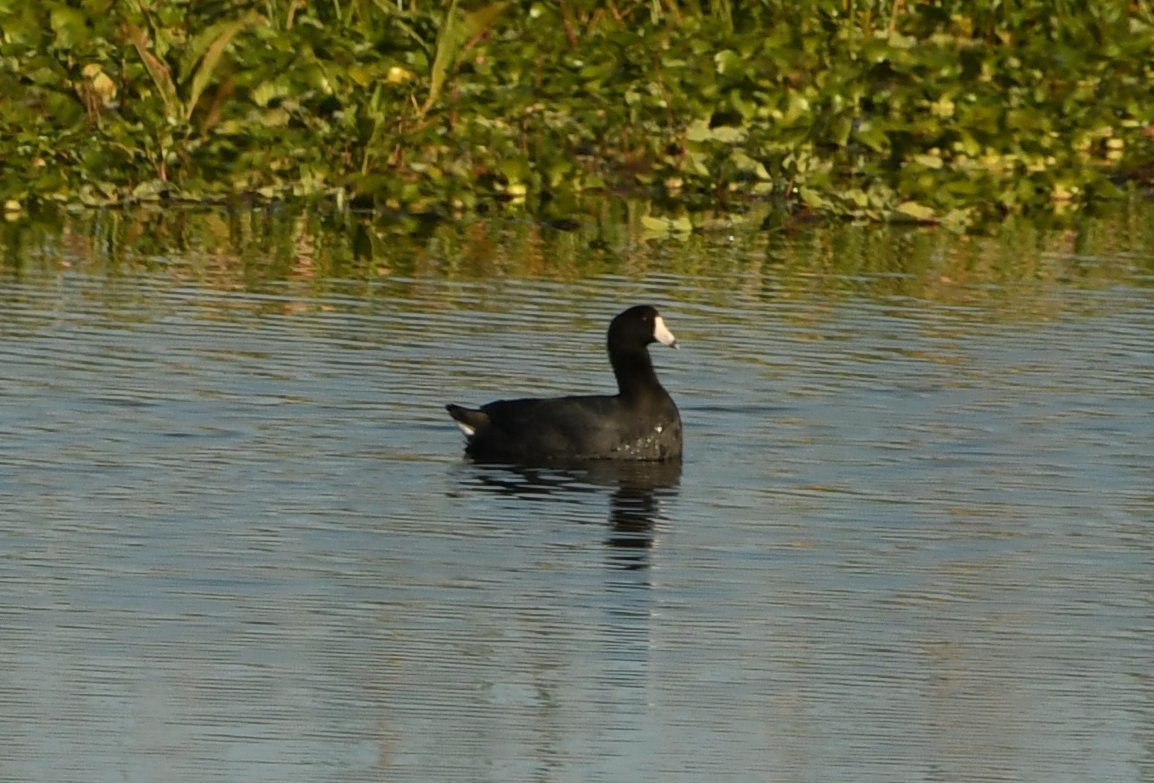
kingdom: Animalia
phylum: Chordata
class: Aves
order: Gruiformes
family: Rallidae
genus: Fulica
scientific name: Fulica americana
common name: American coot
